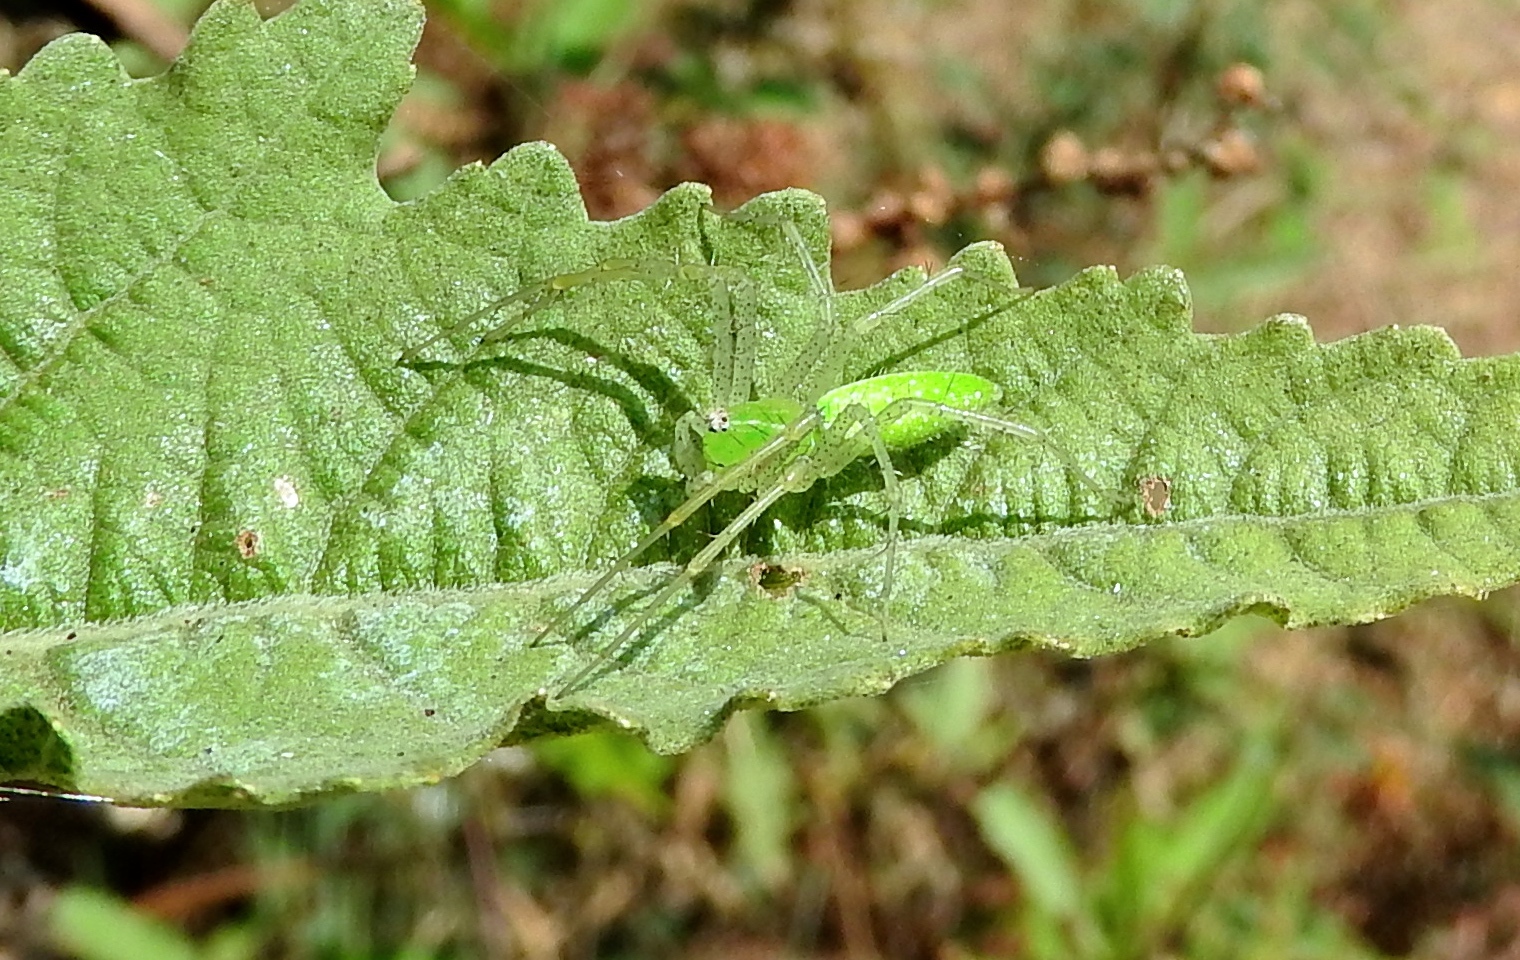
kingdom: Animalia
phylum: Arthropoda
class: Arachnida
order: Araneae
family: Oxyopidae
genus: Peucetia
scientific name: Peucetia
